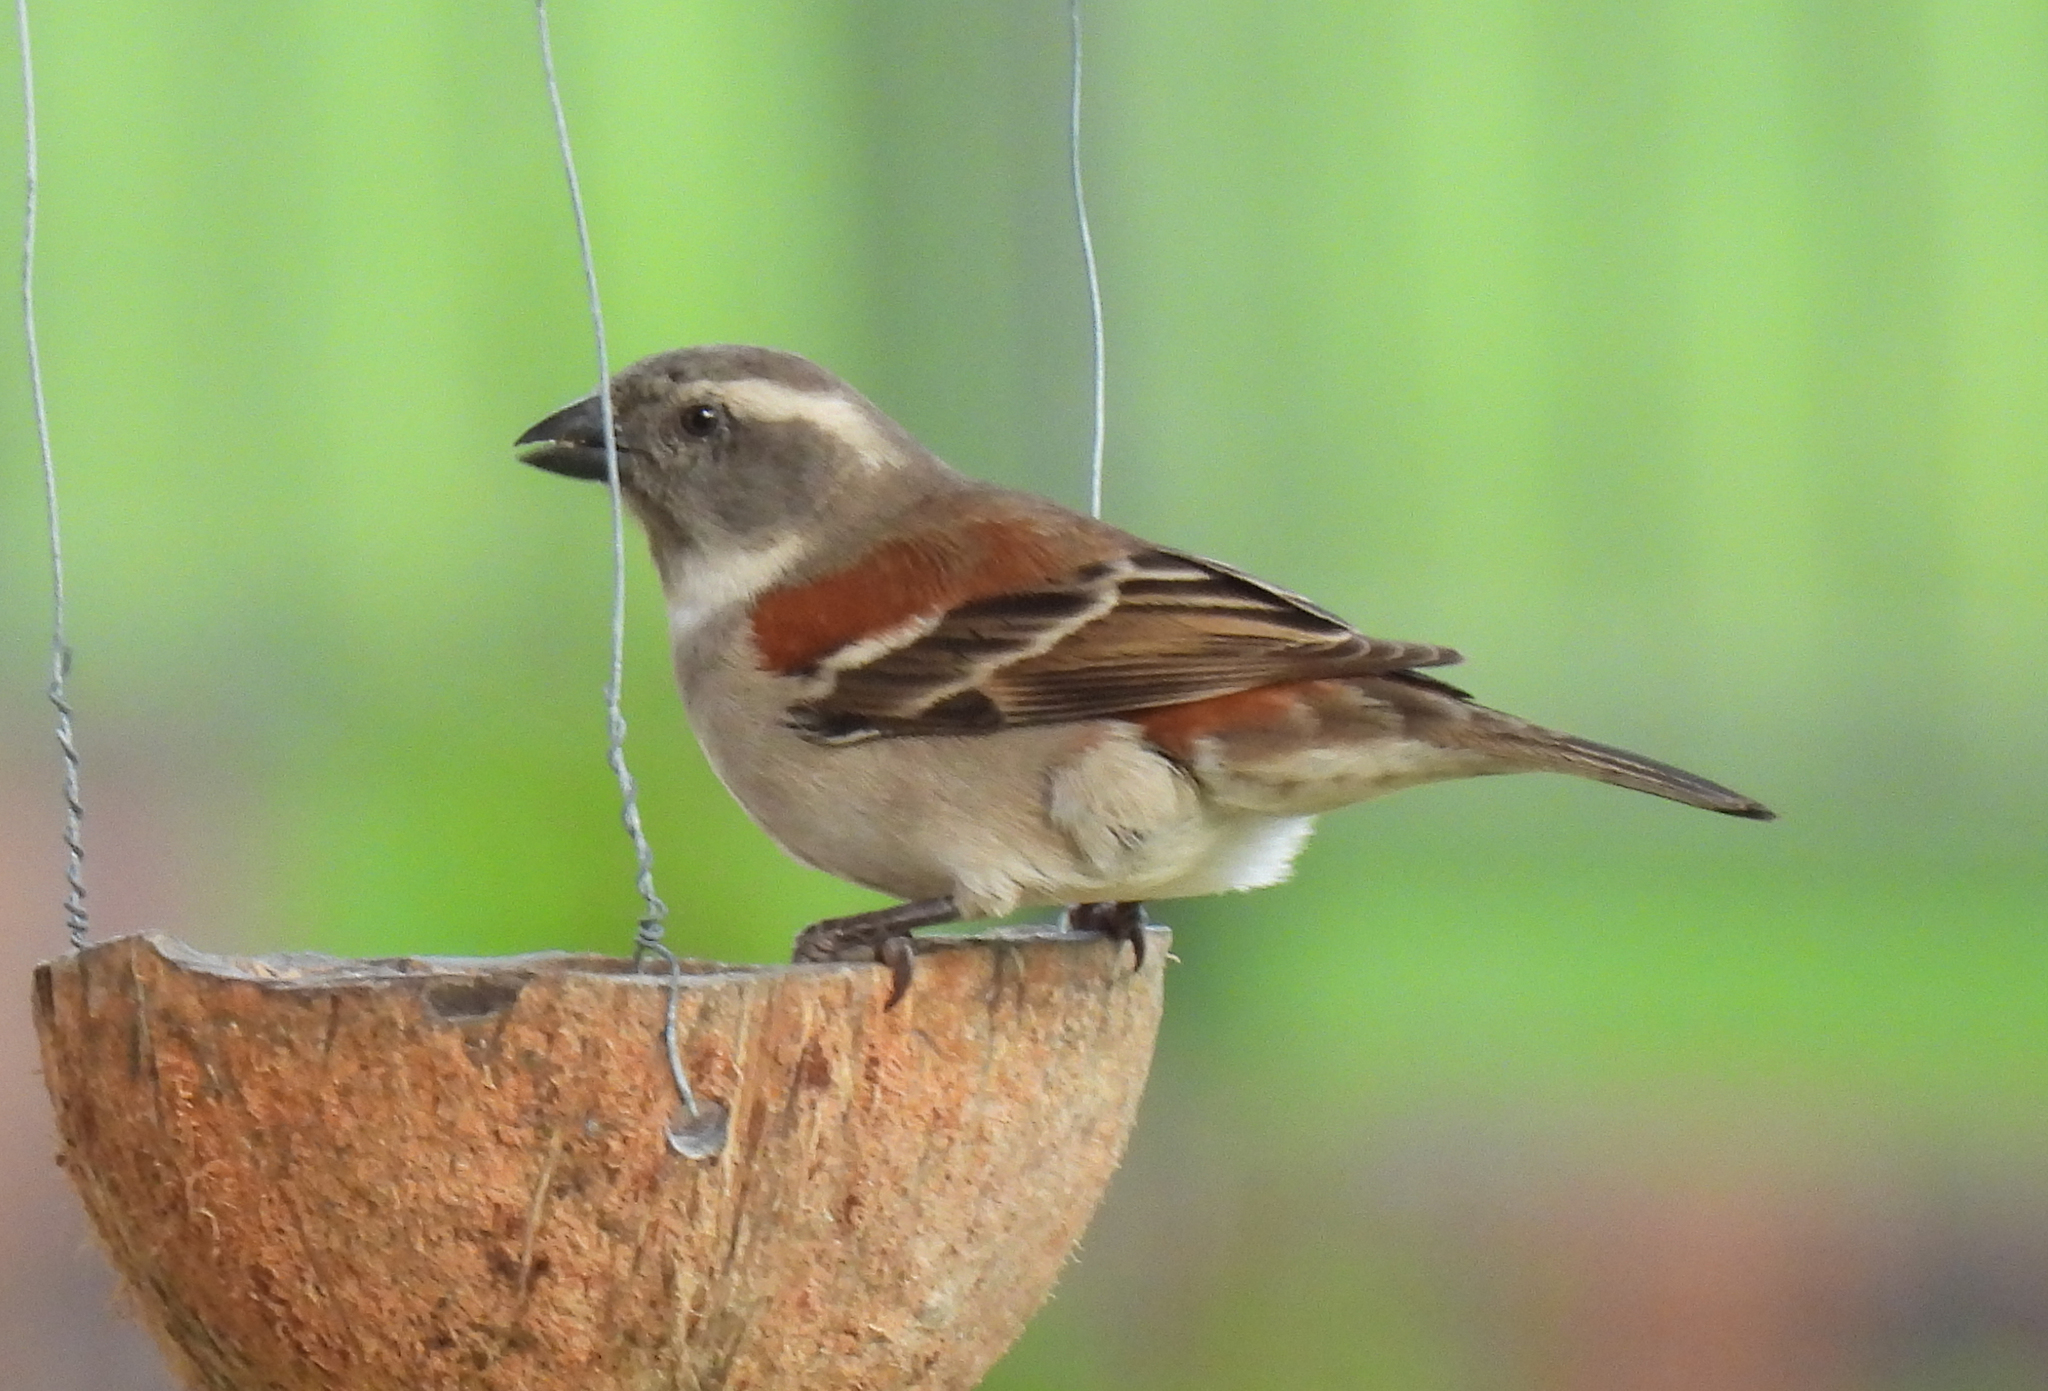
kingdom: Animalia
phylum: Chordata
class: Aves
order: Passeriformes
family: Passeridae
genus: Passer
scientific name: Passer melanurus
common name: Cape sparrow
